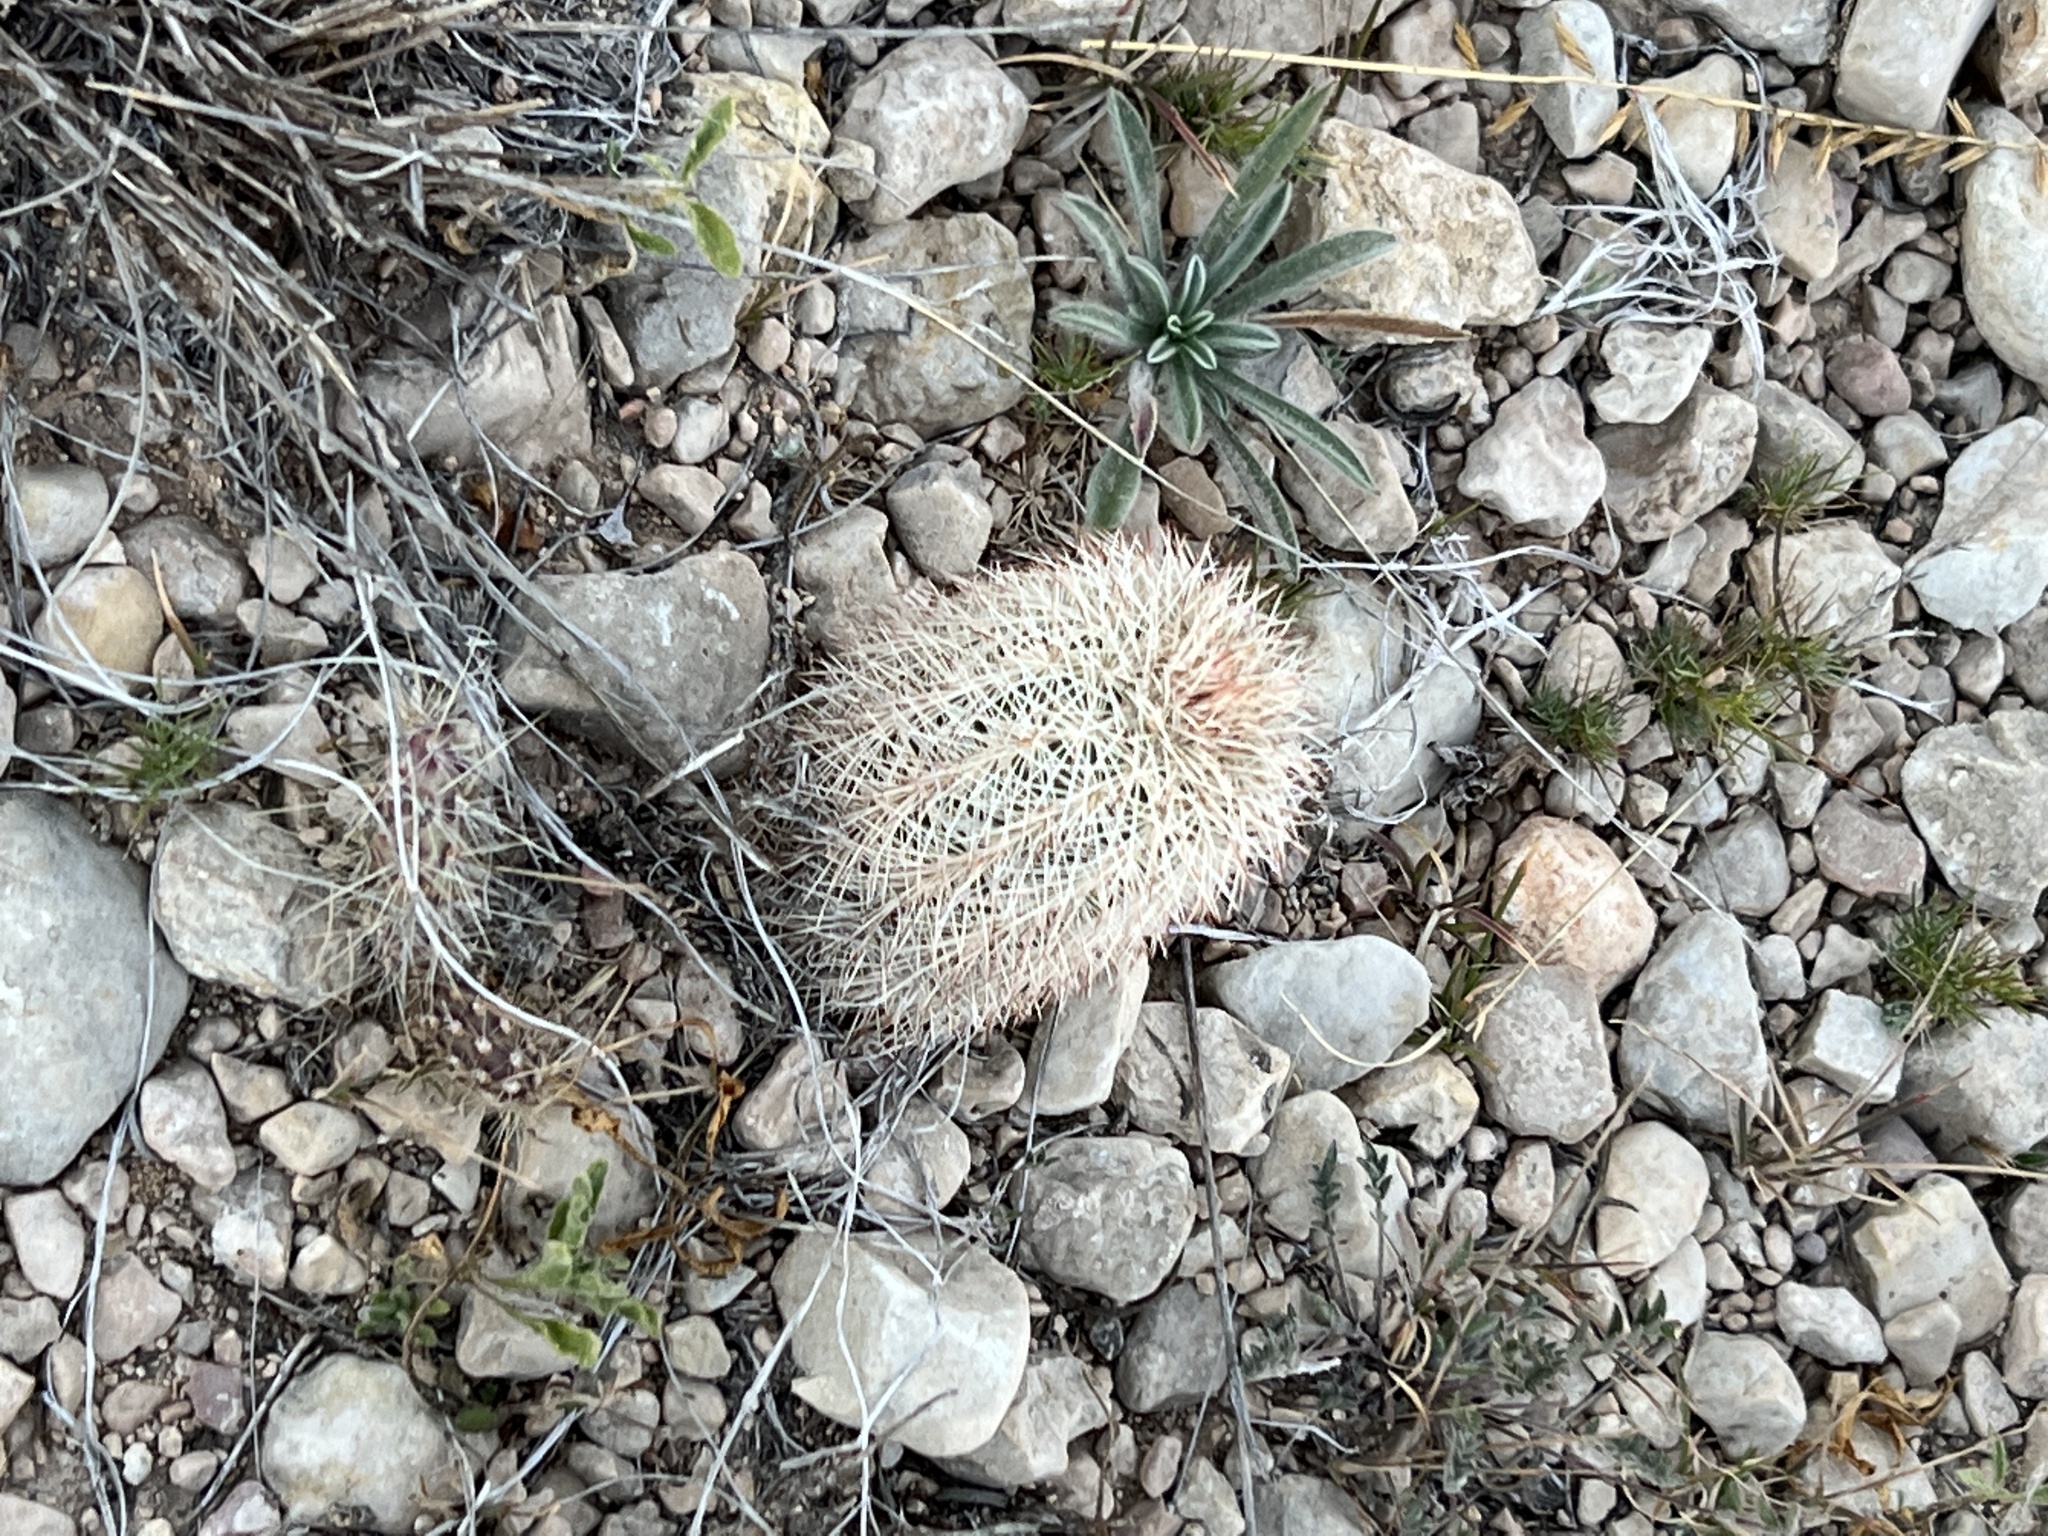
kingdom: Plantae
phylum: Tracheophyta
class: Magnoliopsida
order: Caryophyllales
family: Cactaceae
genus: Echinocereus
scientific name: Echinocereus dasyacanthus
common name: Spiny hedgehog cactus
